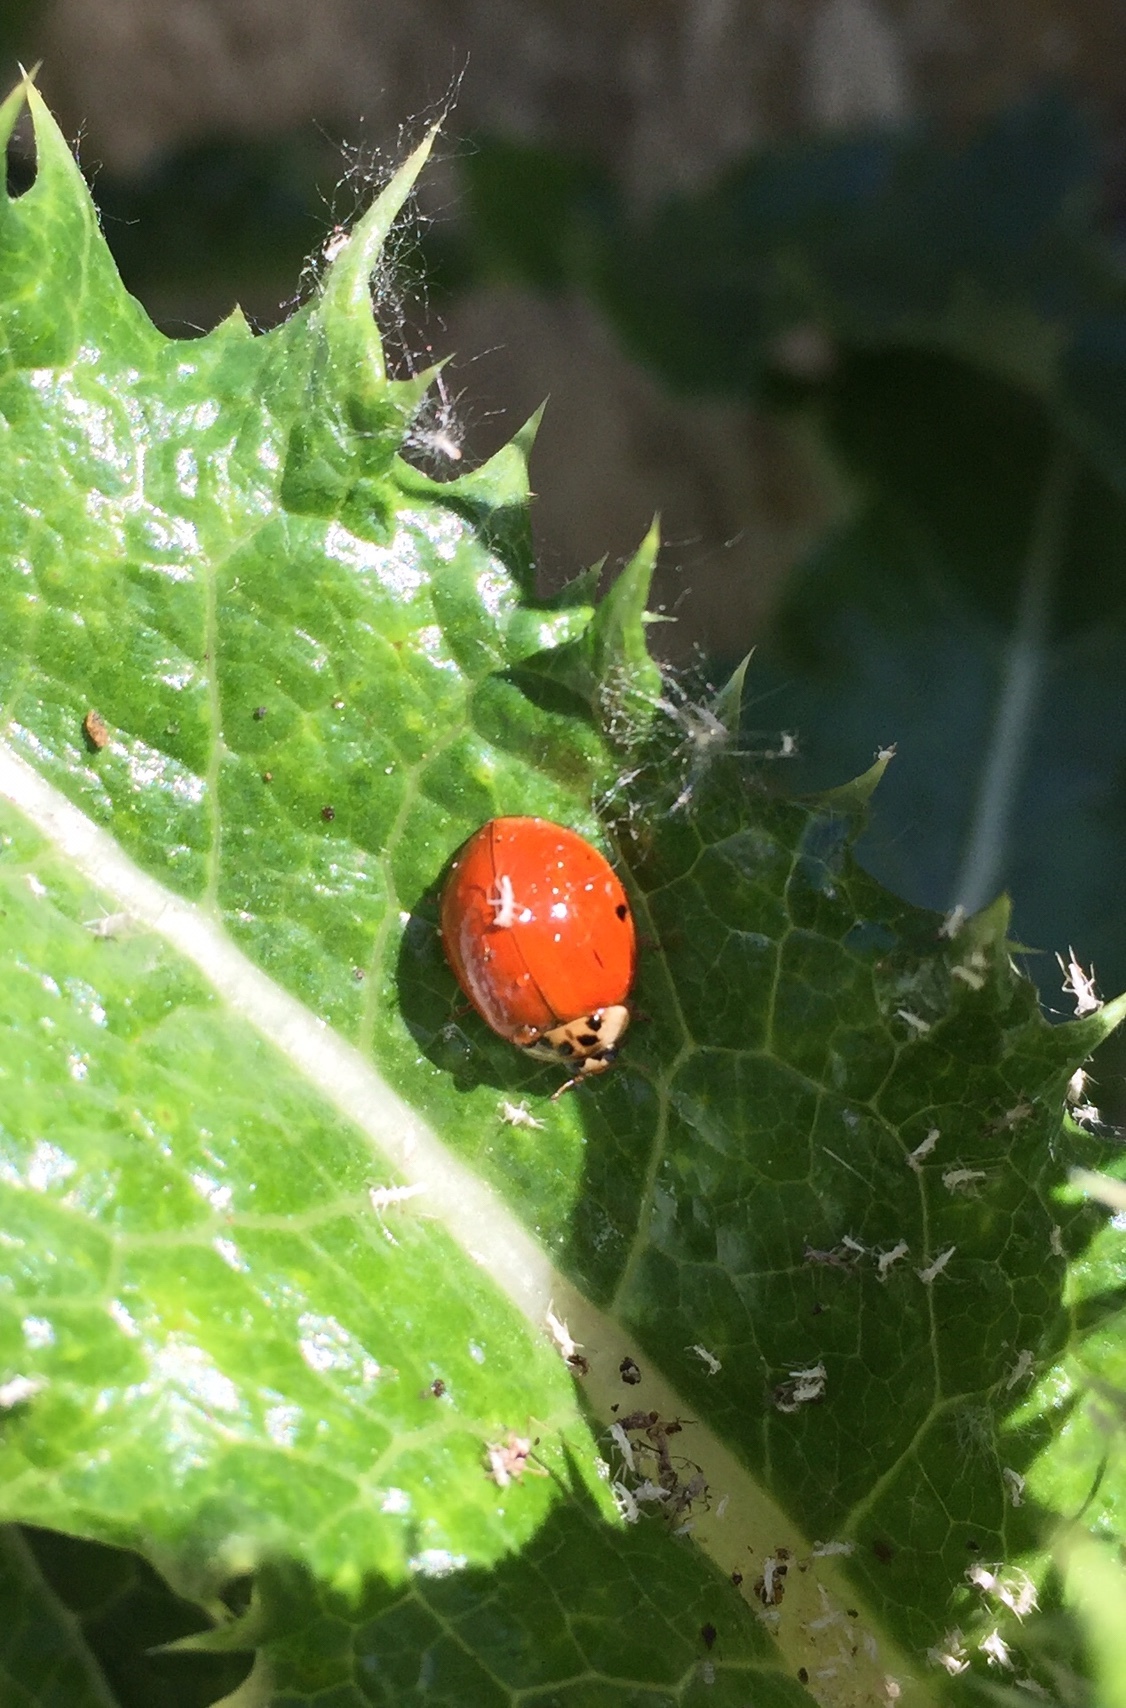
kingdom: Animalia
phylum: Arthropoda
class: Insecta
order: Coleoptera
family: Coccinellidae
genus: Harmonia
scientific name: Harmonia axyridis
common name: Harlequin ladybird
